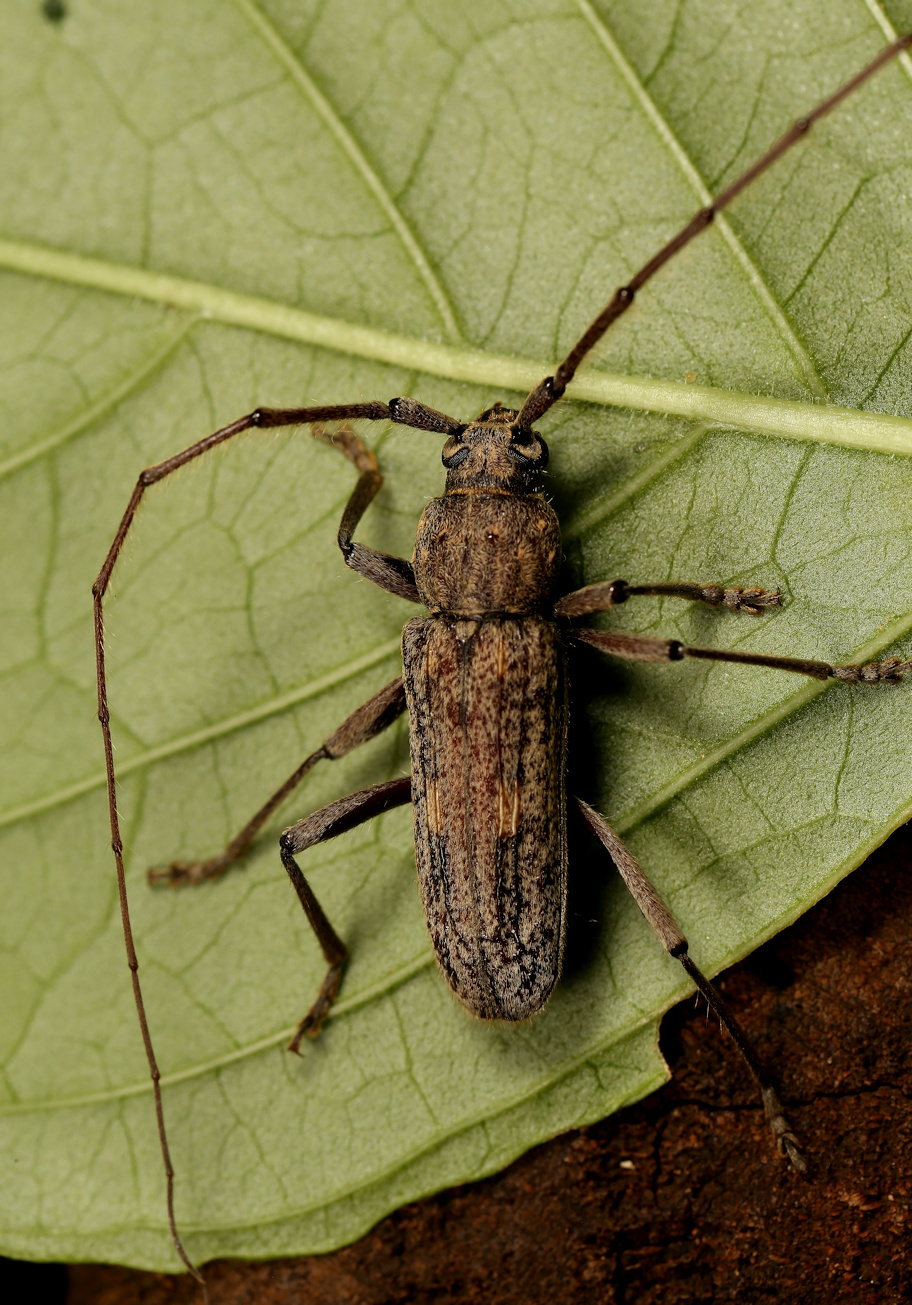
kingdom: Animalia
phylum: Arthropoda
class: Insecta
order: Coleoptera
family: Cerambycidae
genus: Zoodes
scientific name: Zoodes liturifer
